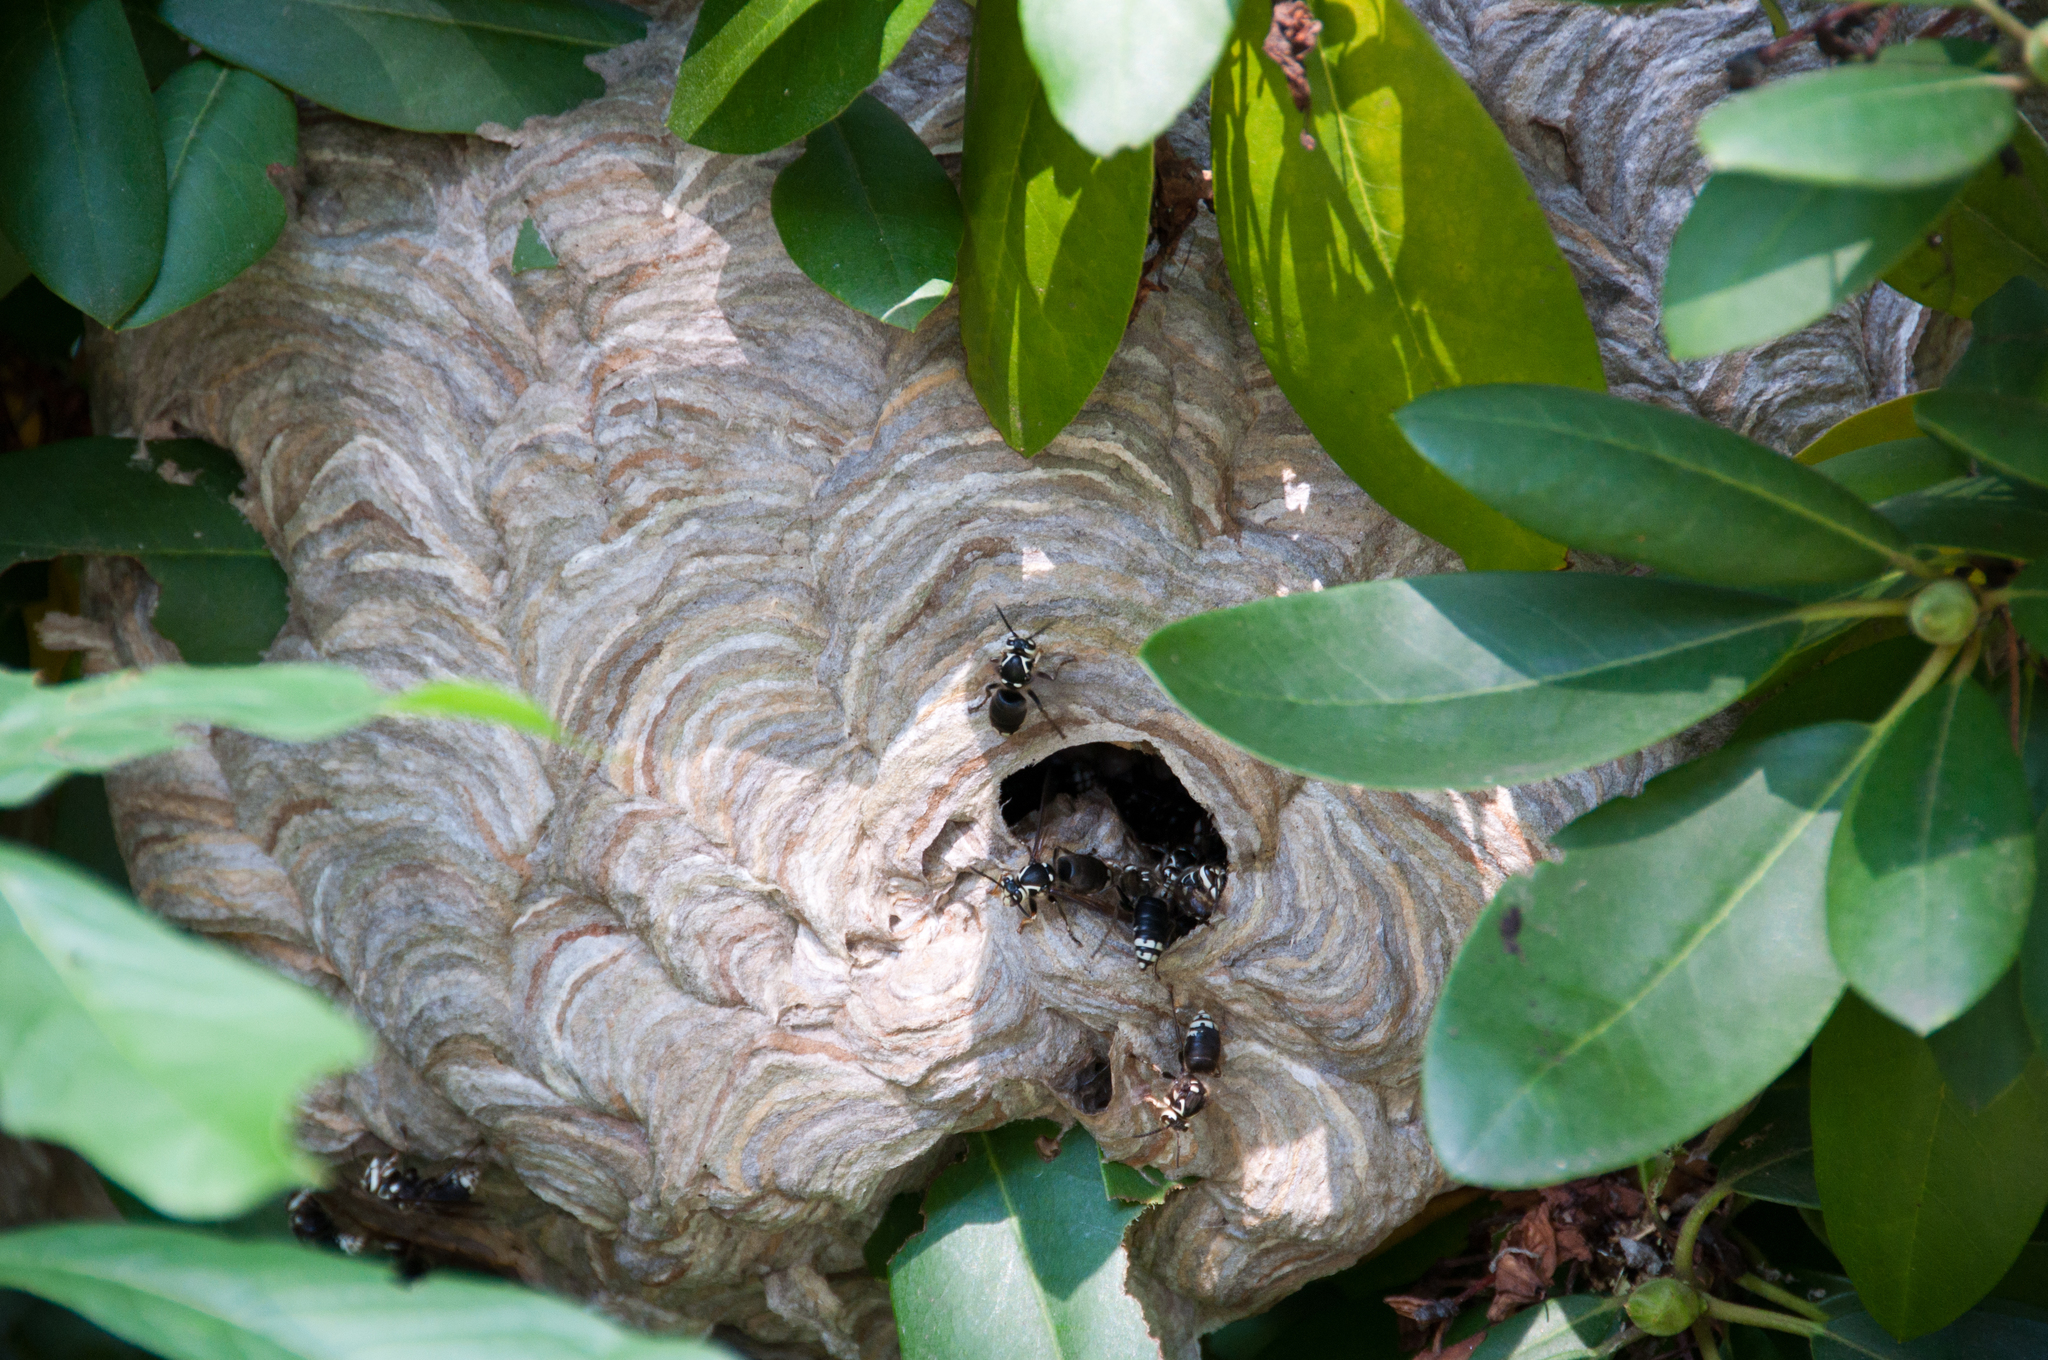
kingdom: Animalia
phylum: Arthropoda
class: Insecta
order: Hymenoptera
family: Vespidae
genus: Dolichovespula
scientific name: Dolichovespula maculata
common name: Bald-faced hornet
